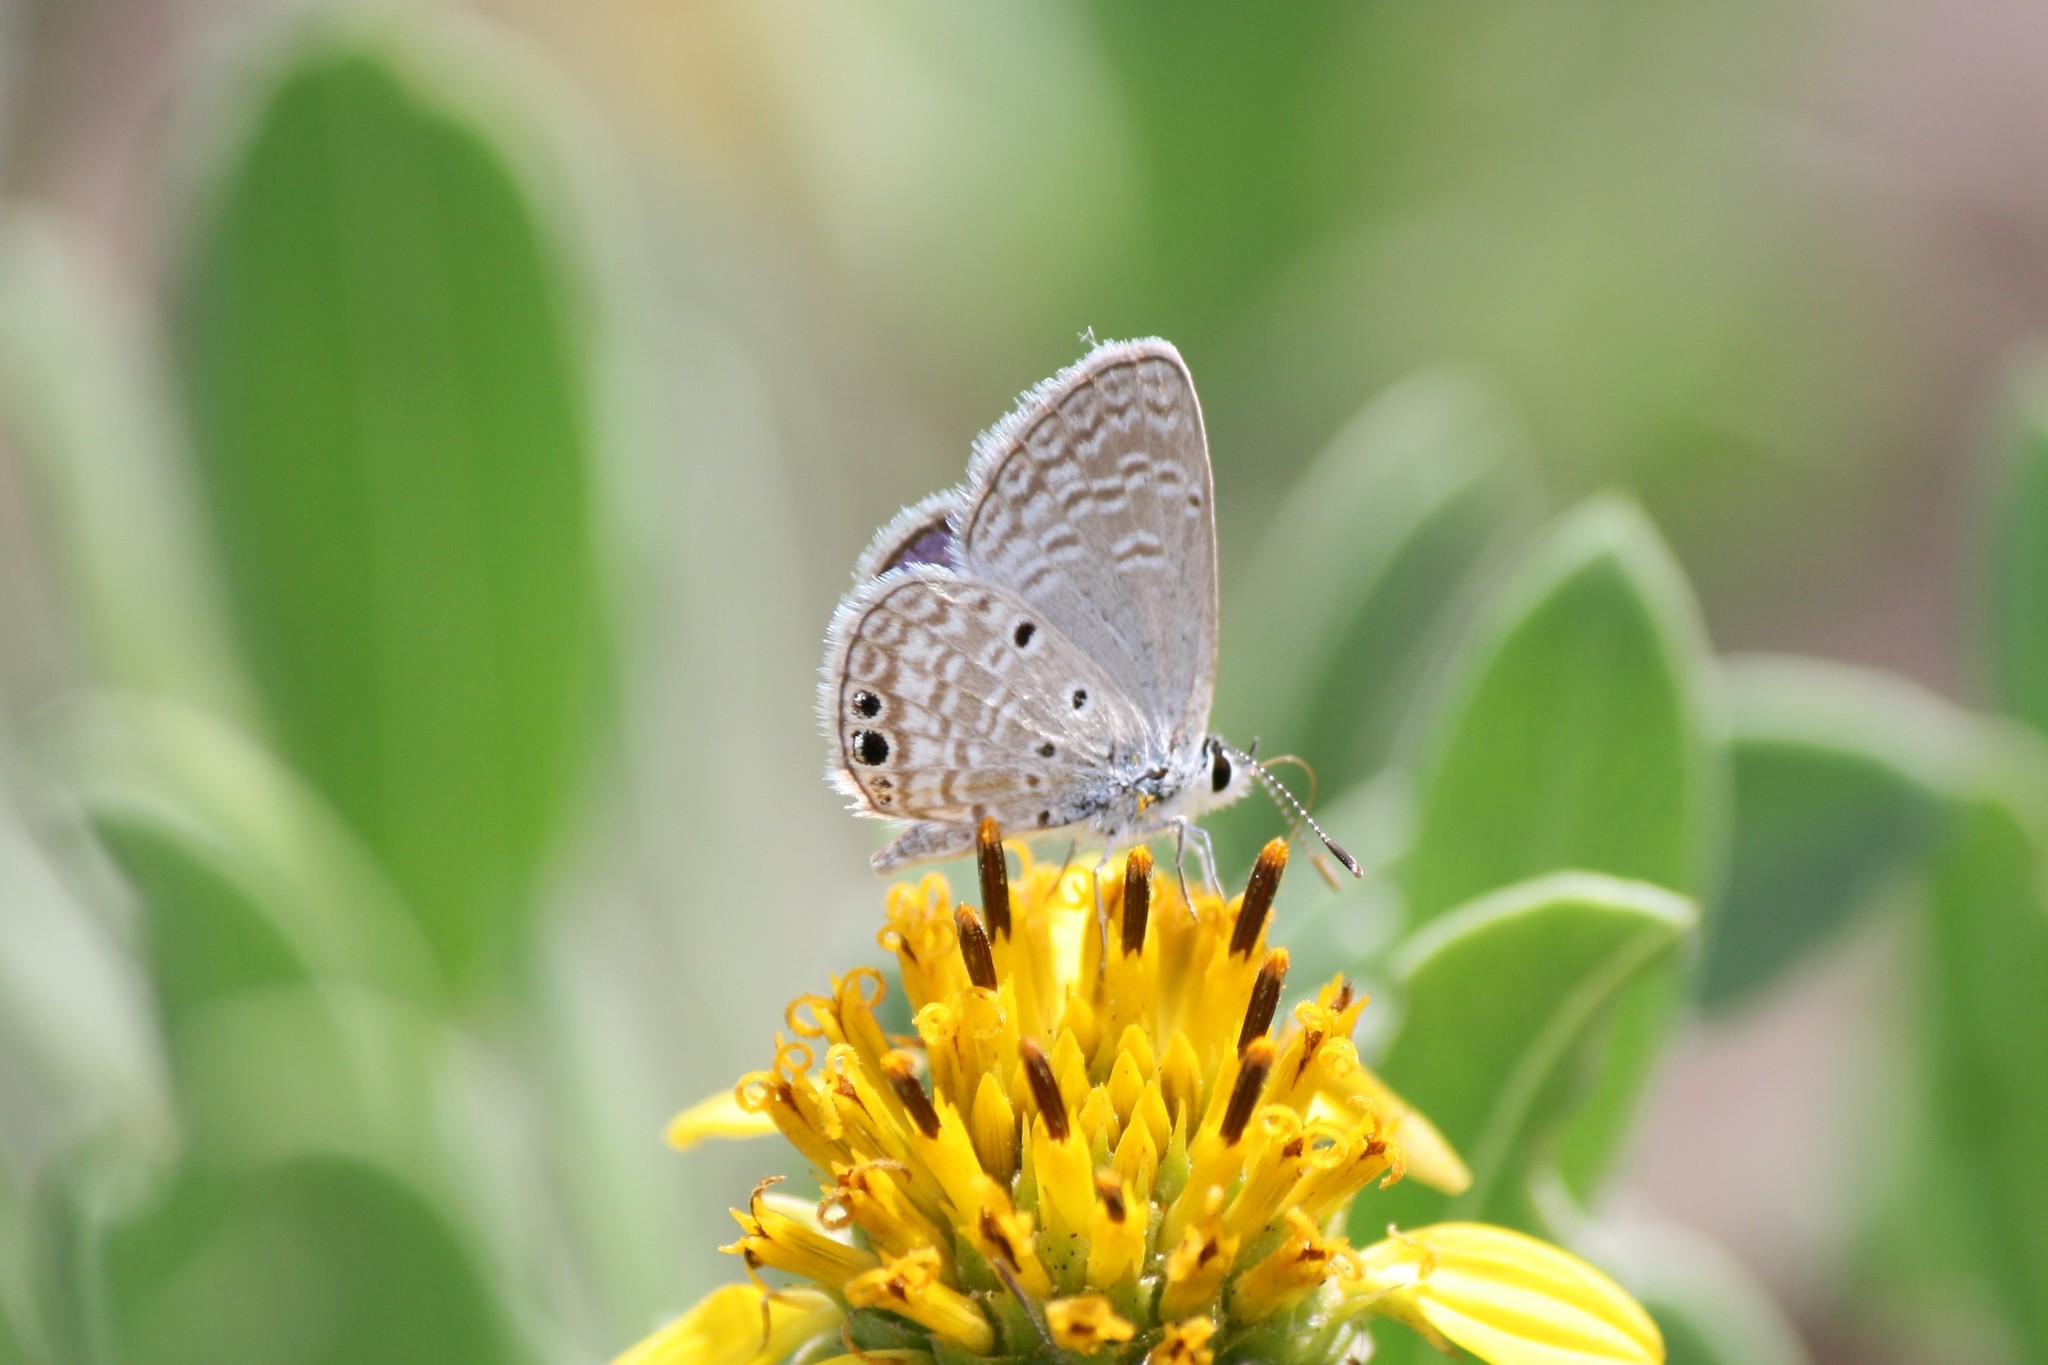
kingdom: Animalia
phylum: Arthropoda
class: Insecta
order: Lepidoptera
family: Lycaenidae
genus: Hemiargus
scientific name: Hemiargus ceraunus
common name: Ceraunus blue
